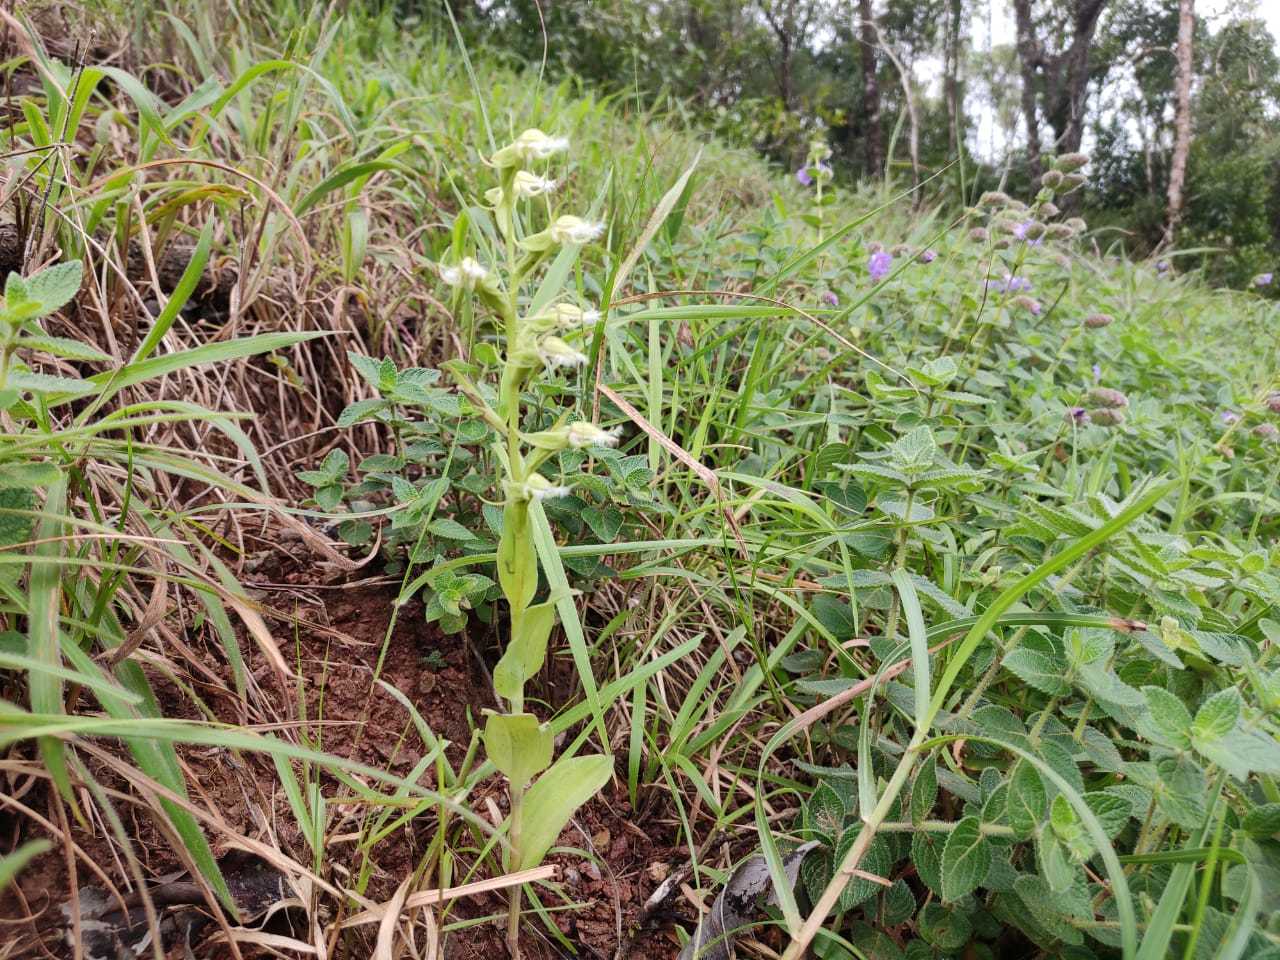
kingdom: Plantae
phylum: Tracheophyta
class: Liliopsida
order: Asparagales
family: Orchidaceae
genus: Habenaria
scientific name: Habenaria elwesii
